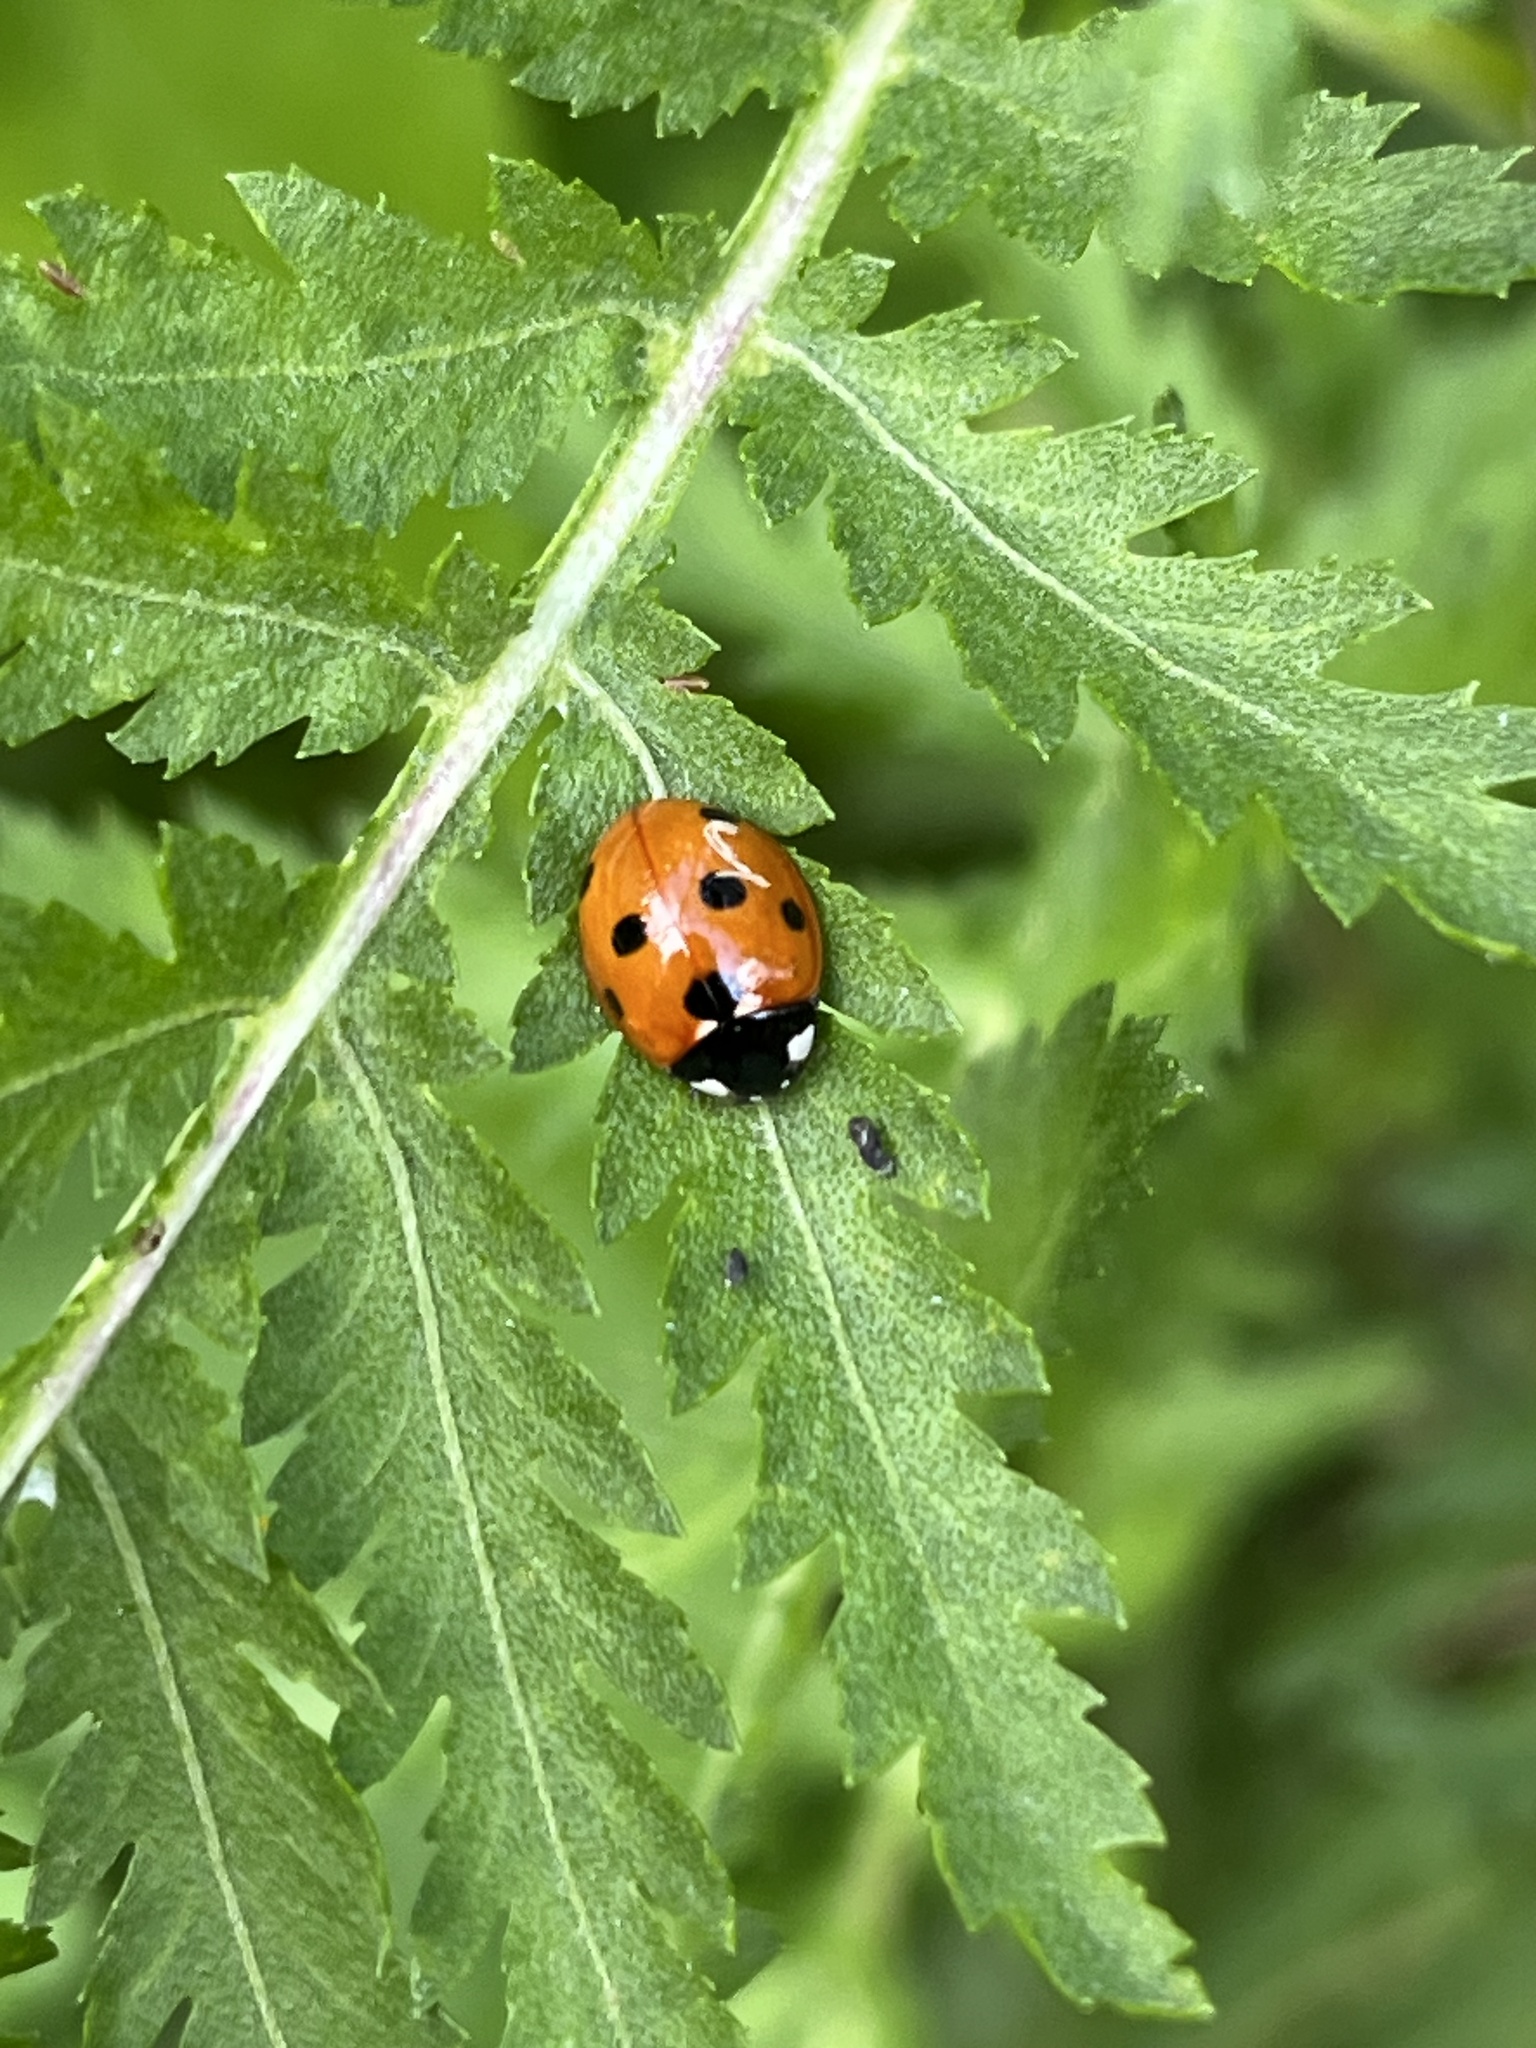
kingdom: Animalia
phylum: Arthropoda
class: Insecta
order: Coleoptera
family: Coccinellidae
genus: Coccinella
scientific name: Coccinella septempunctata
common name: Sevenspotted lady beetle
